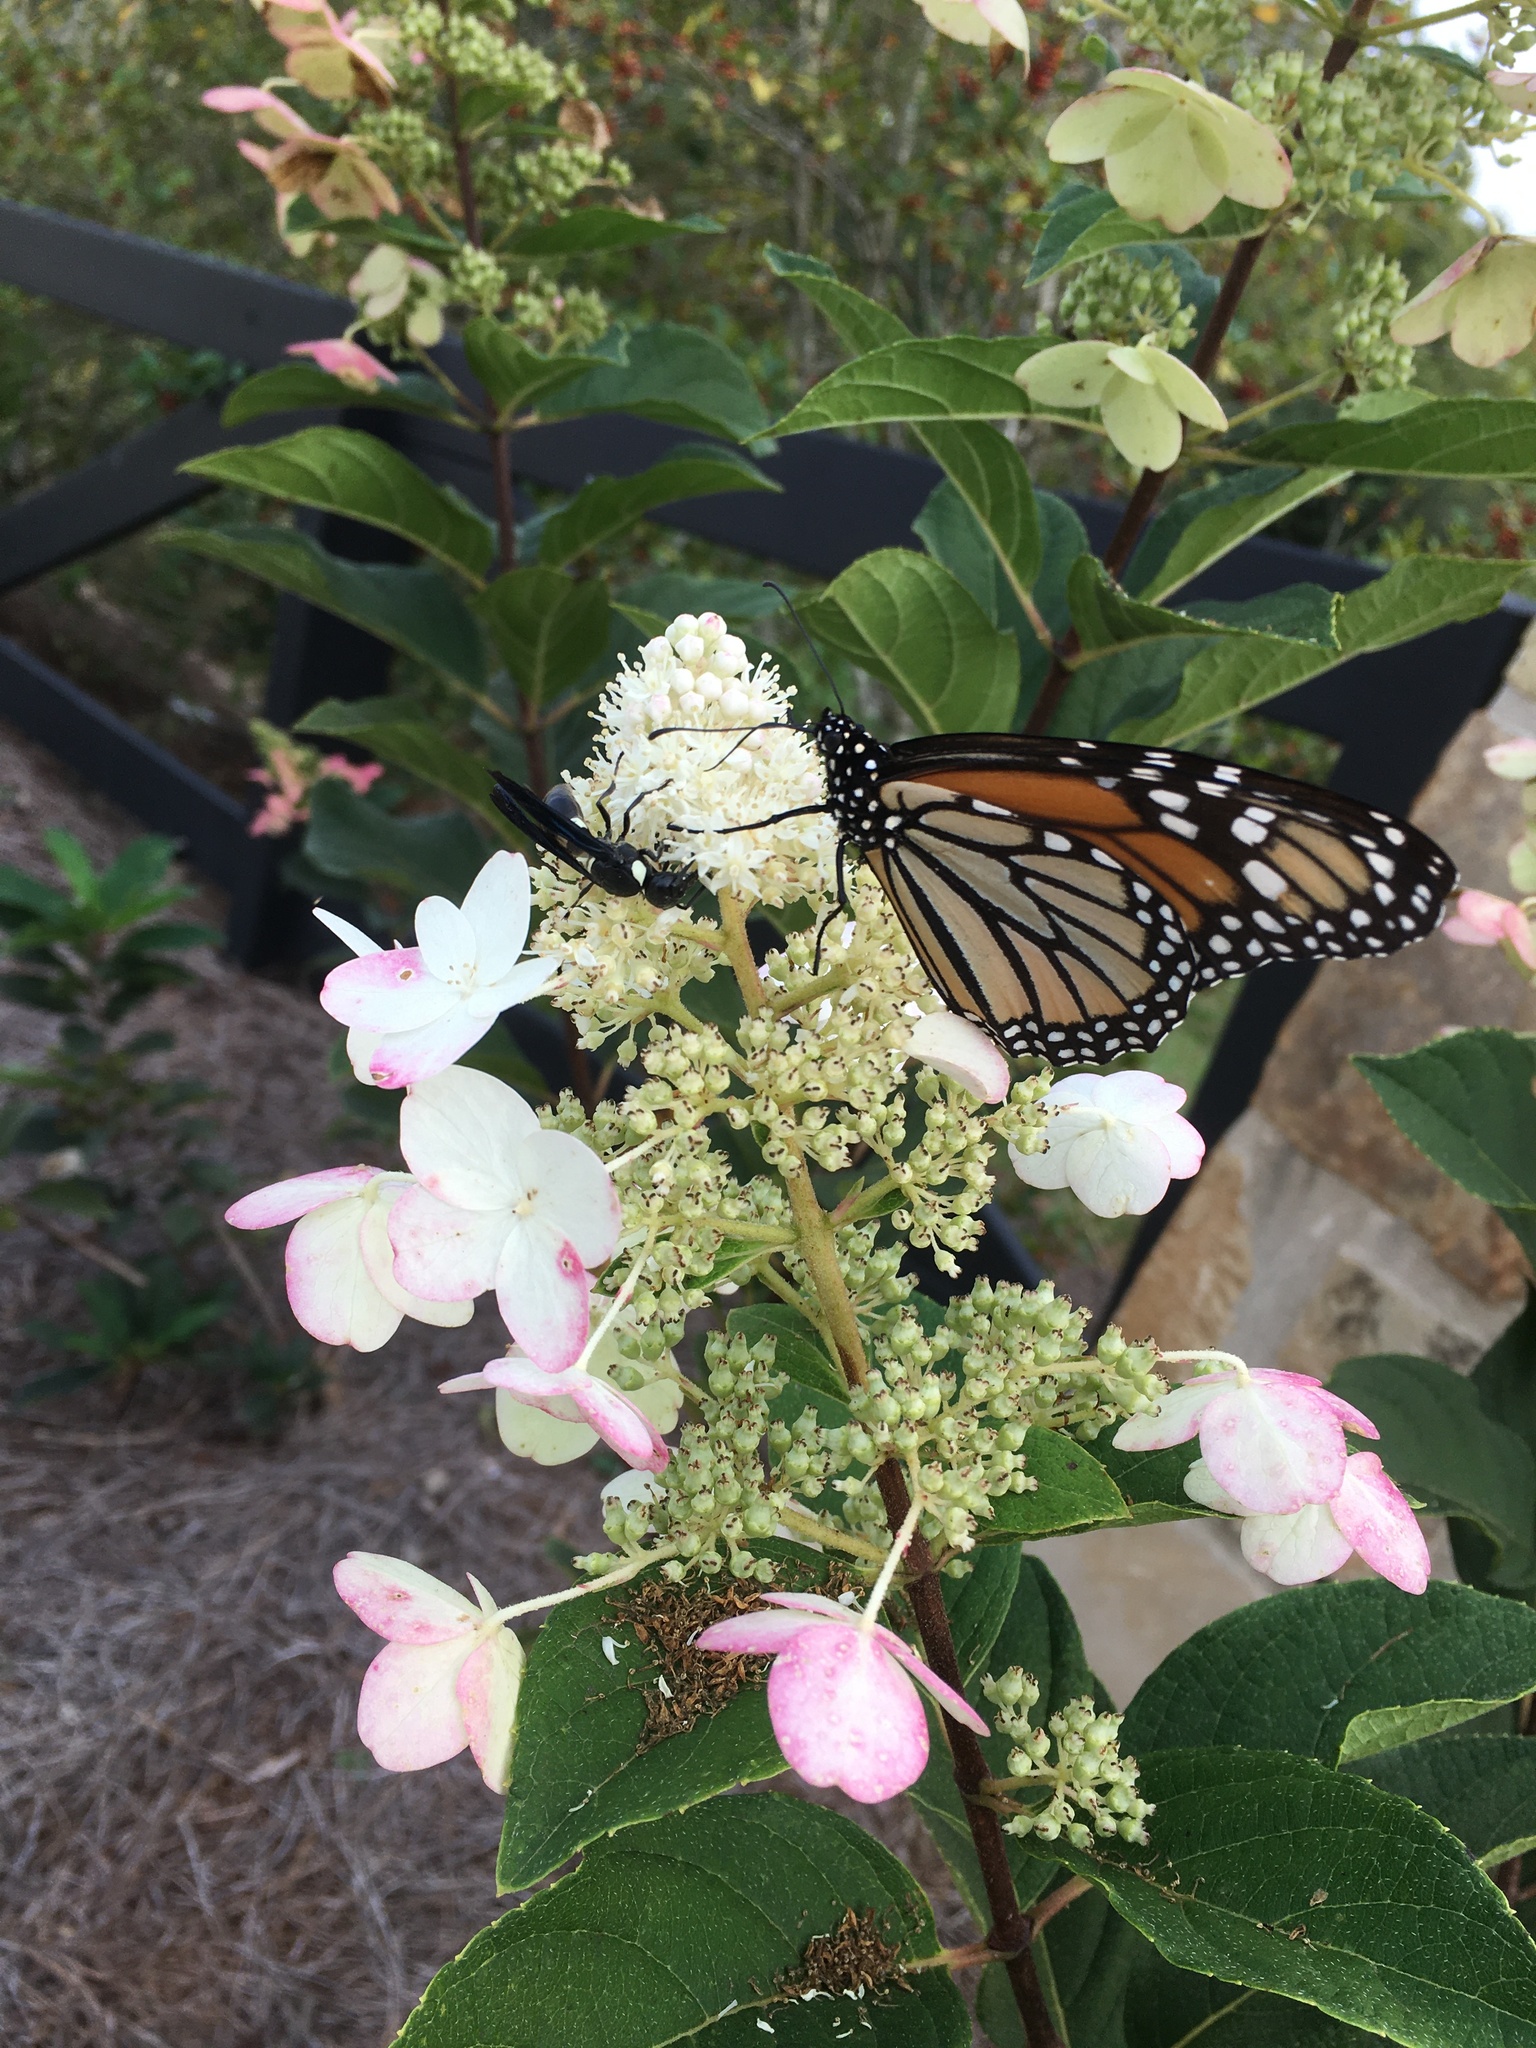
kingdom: Animalia
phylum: Arthropoda
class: Insecta
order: Lepidoptera
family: Nymphalidae
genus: Danaus
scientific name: Danaus plexippus
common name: Monarch
